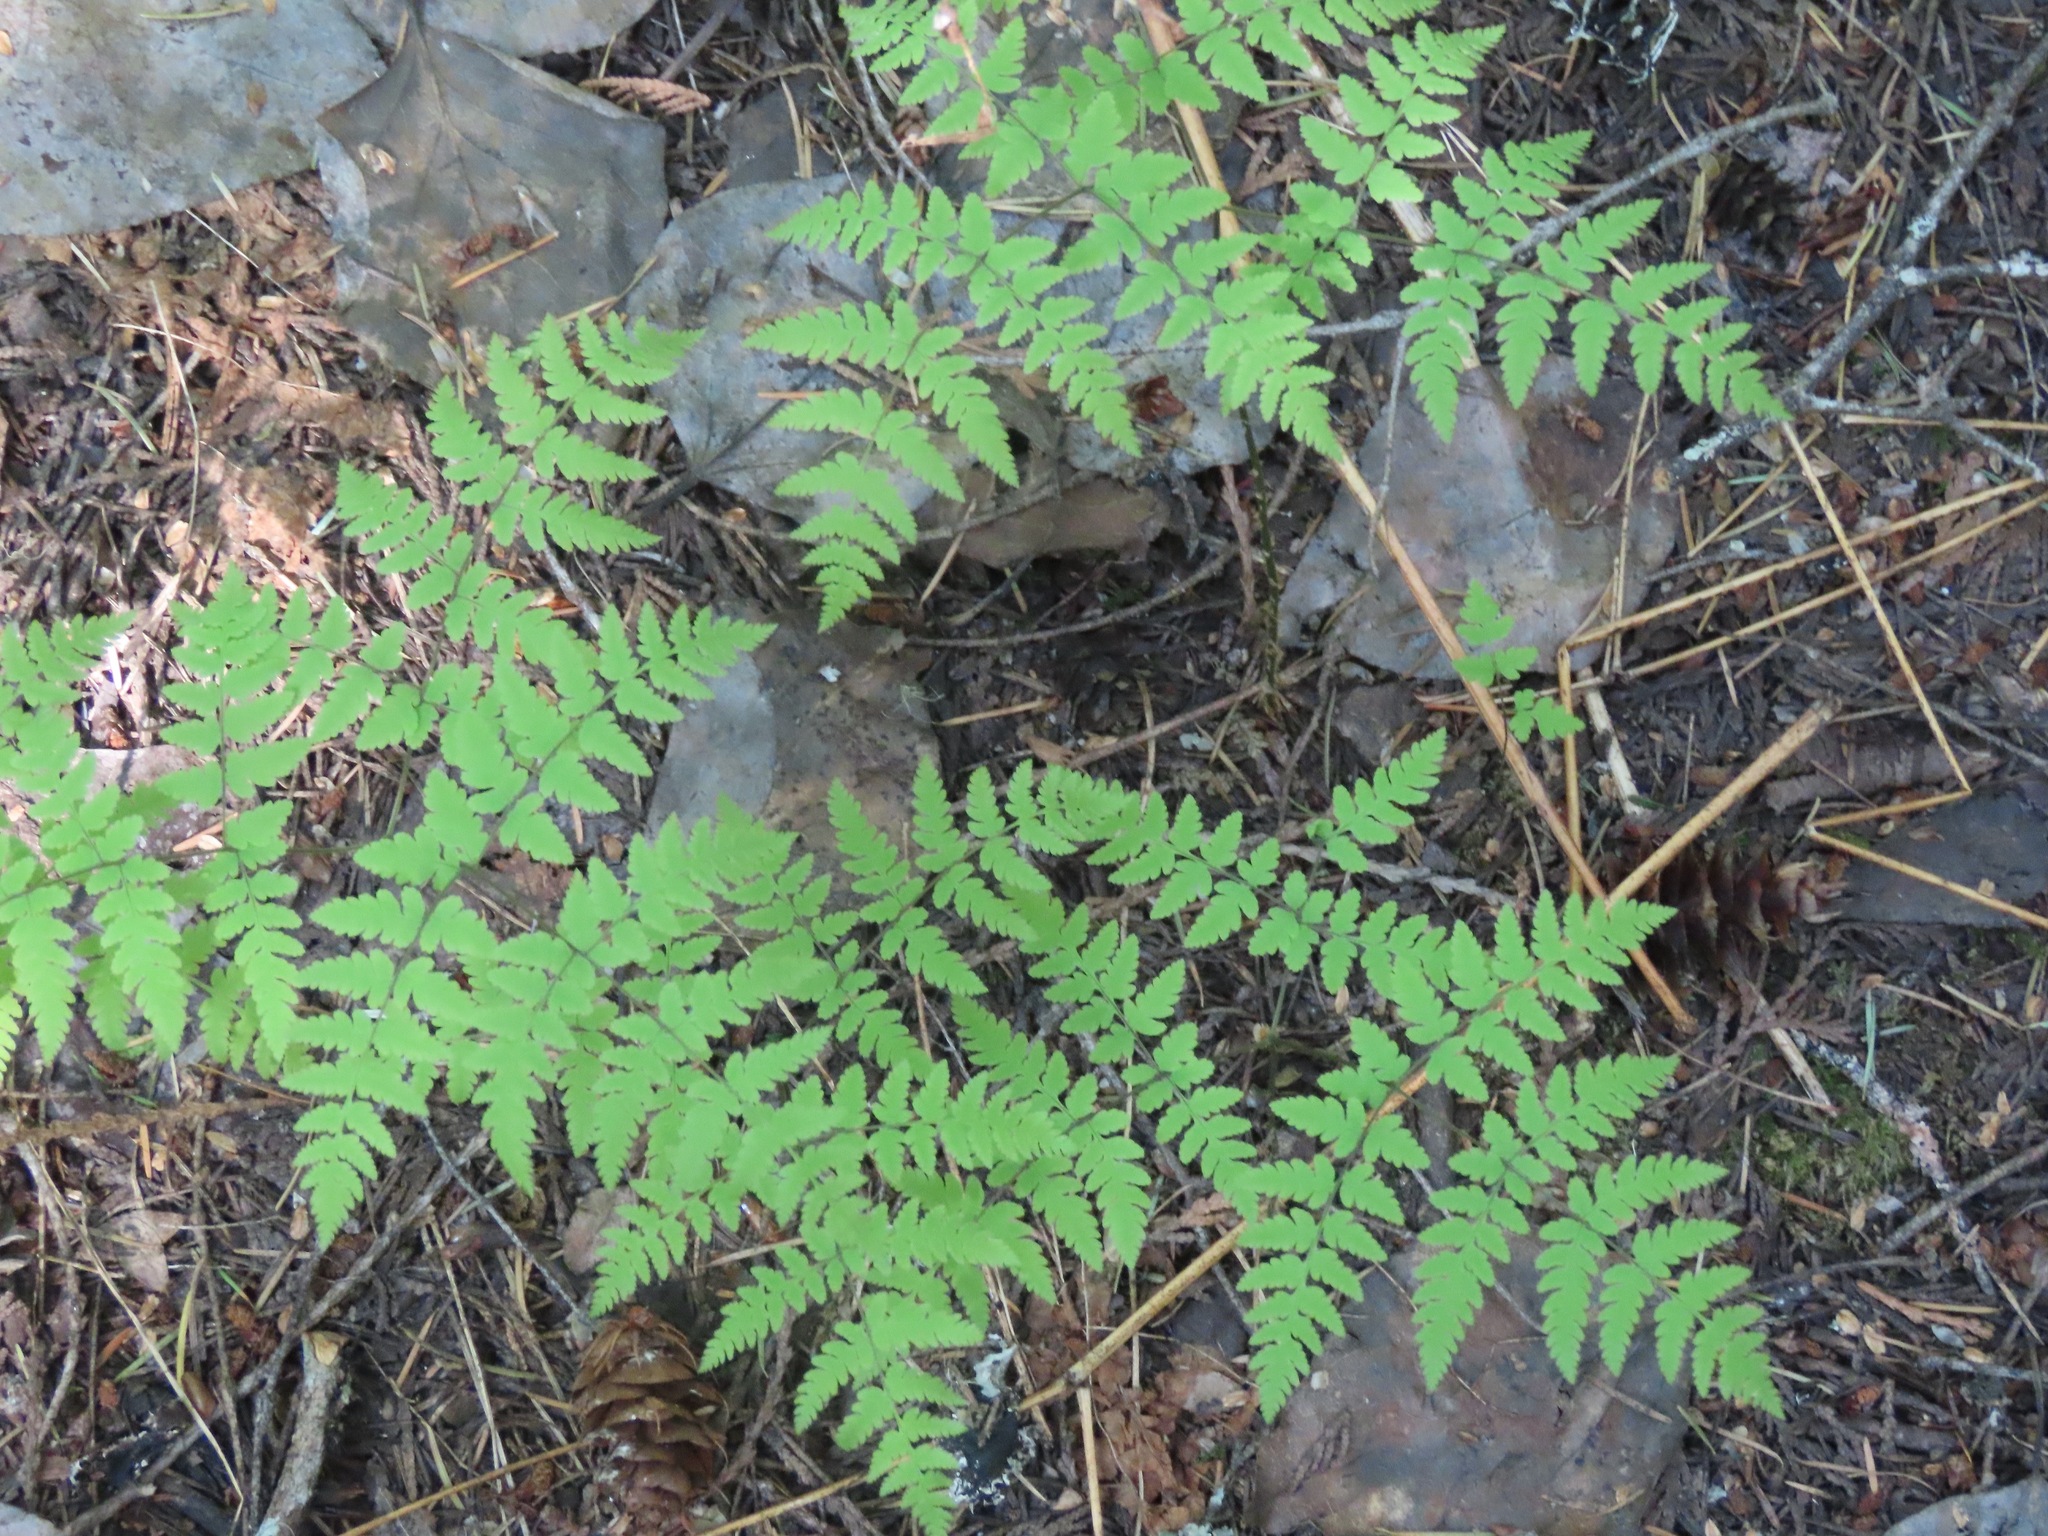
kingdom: Plantae
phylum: Tracheophyta
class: Polypodiopsida
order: Polypodiales
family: Cystopteridaceae
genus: Gymnocarpium
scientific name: Gymnocarpium disjunctum
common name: Western oak fern
